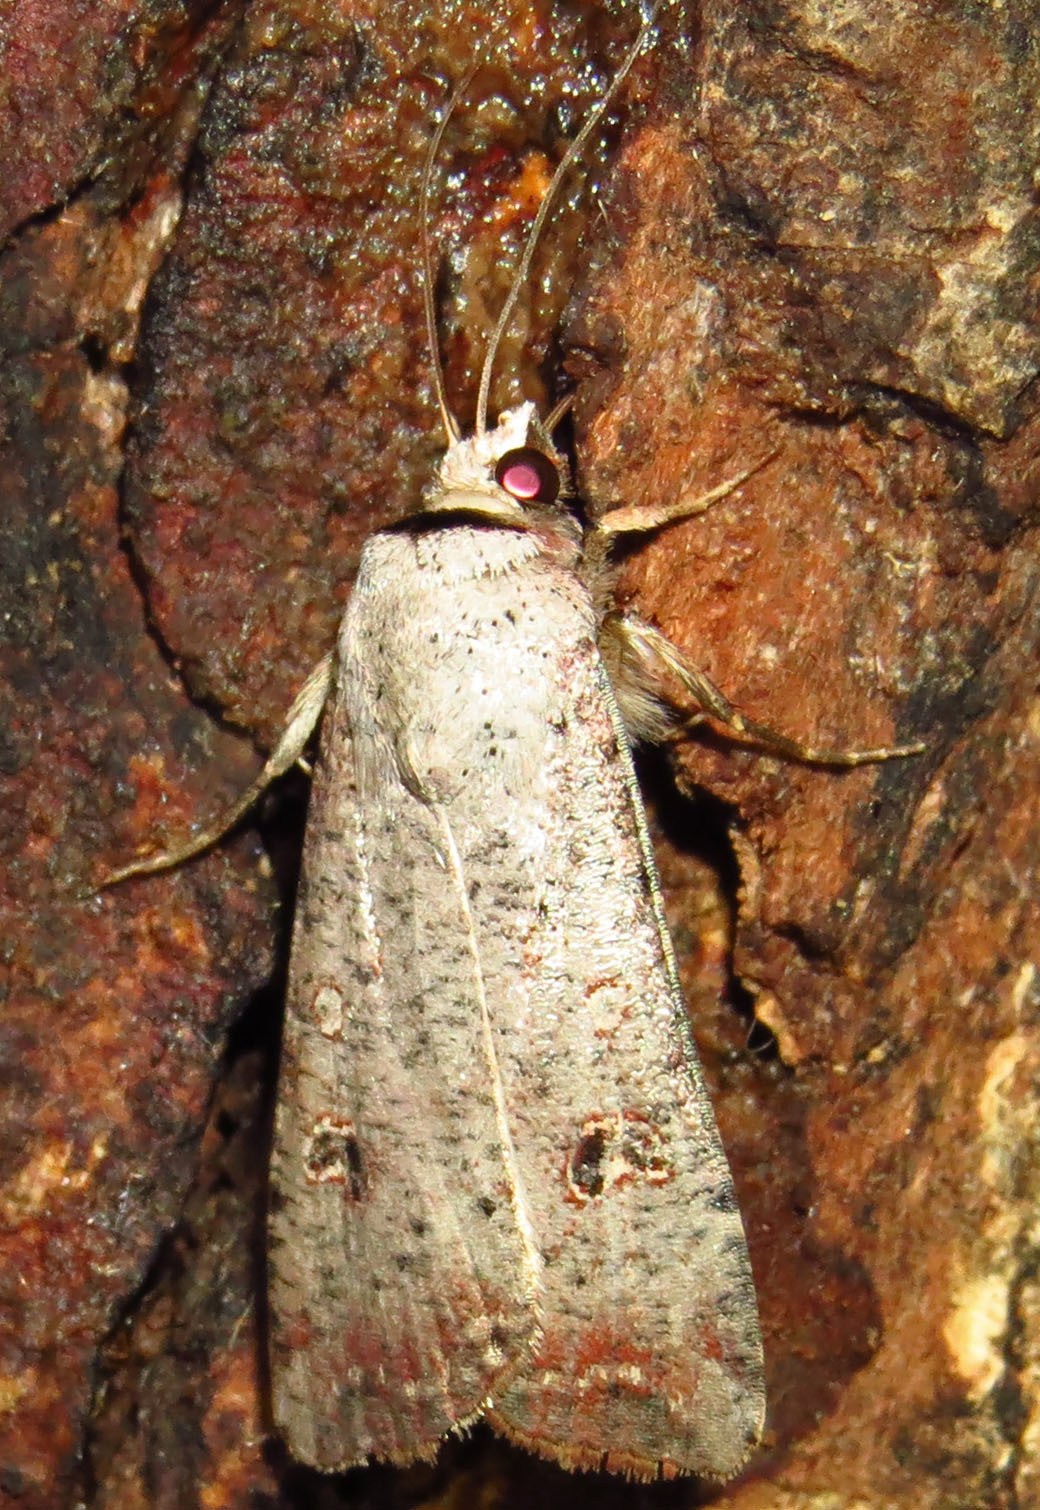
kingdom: Animalia
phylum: Arthropoda
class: Insecta
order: Lepidoptera
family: Noctuidae
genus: Anicla
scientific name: Anicla infecta
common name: Green cutworm
